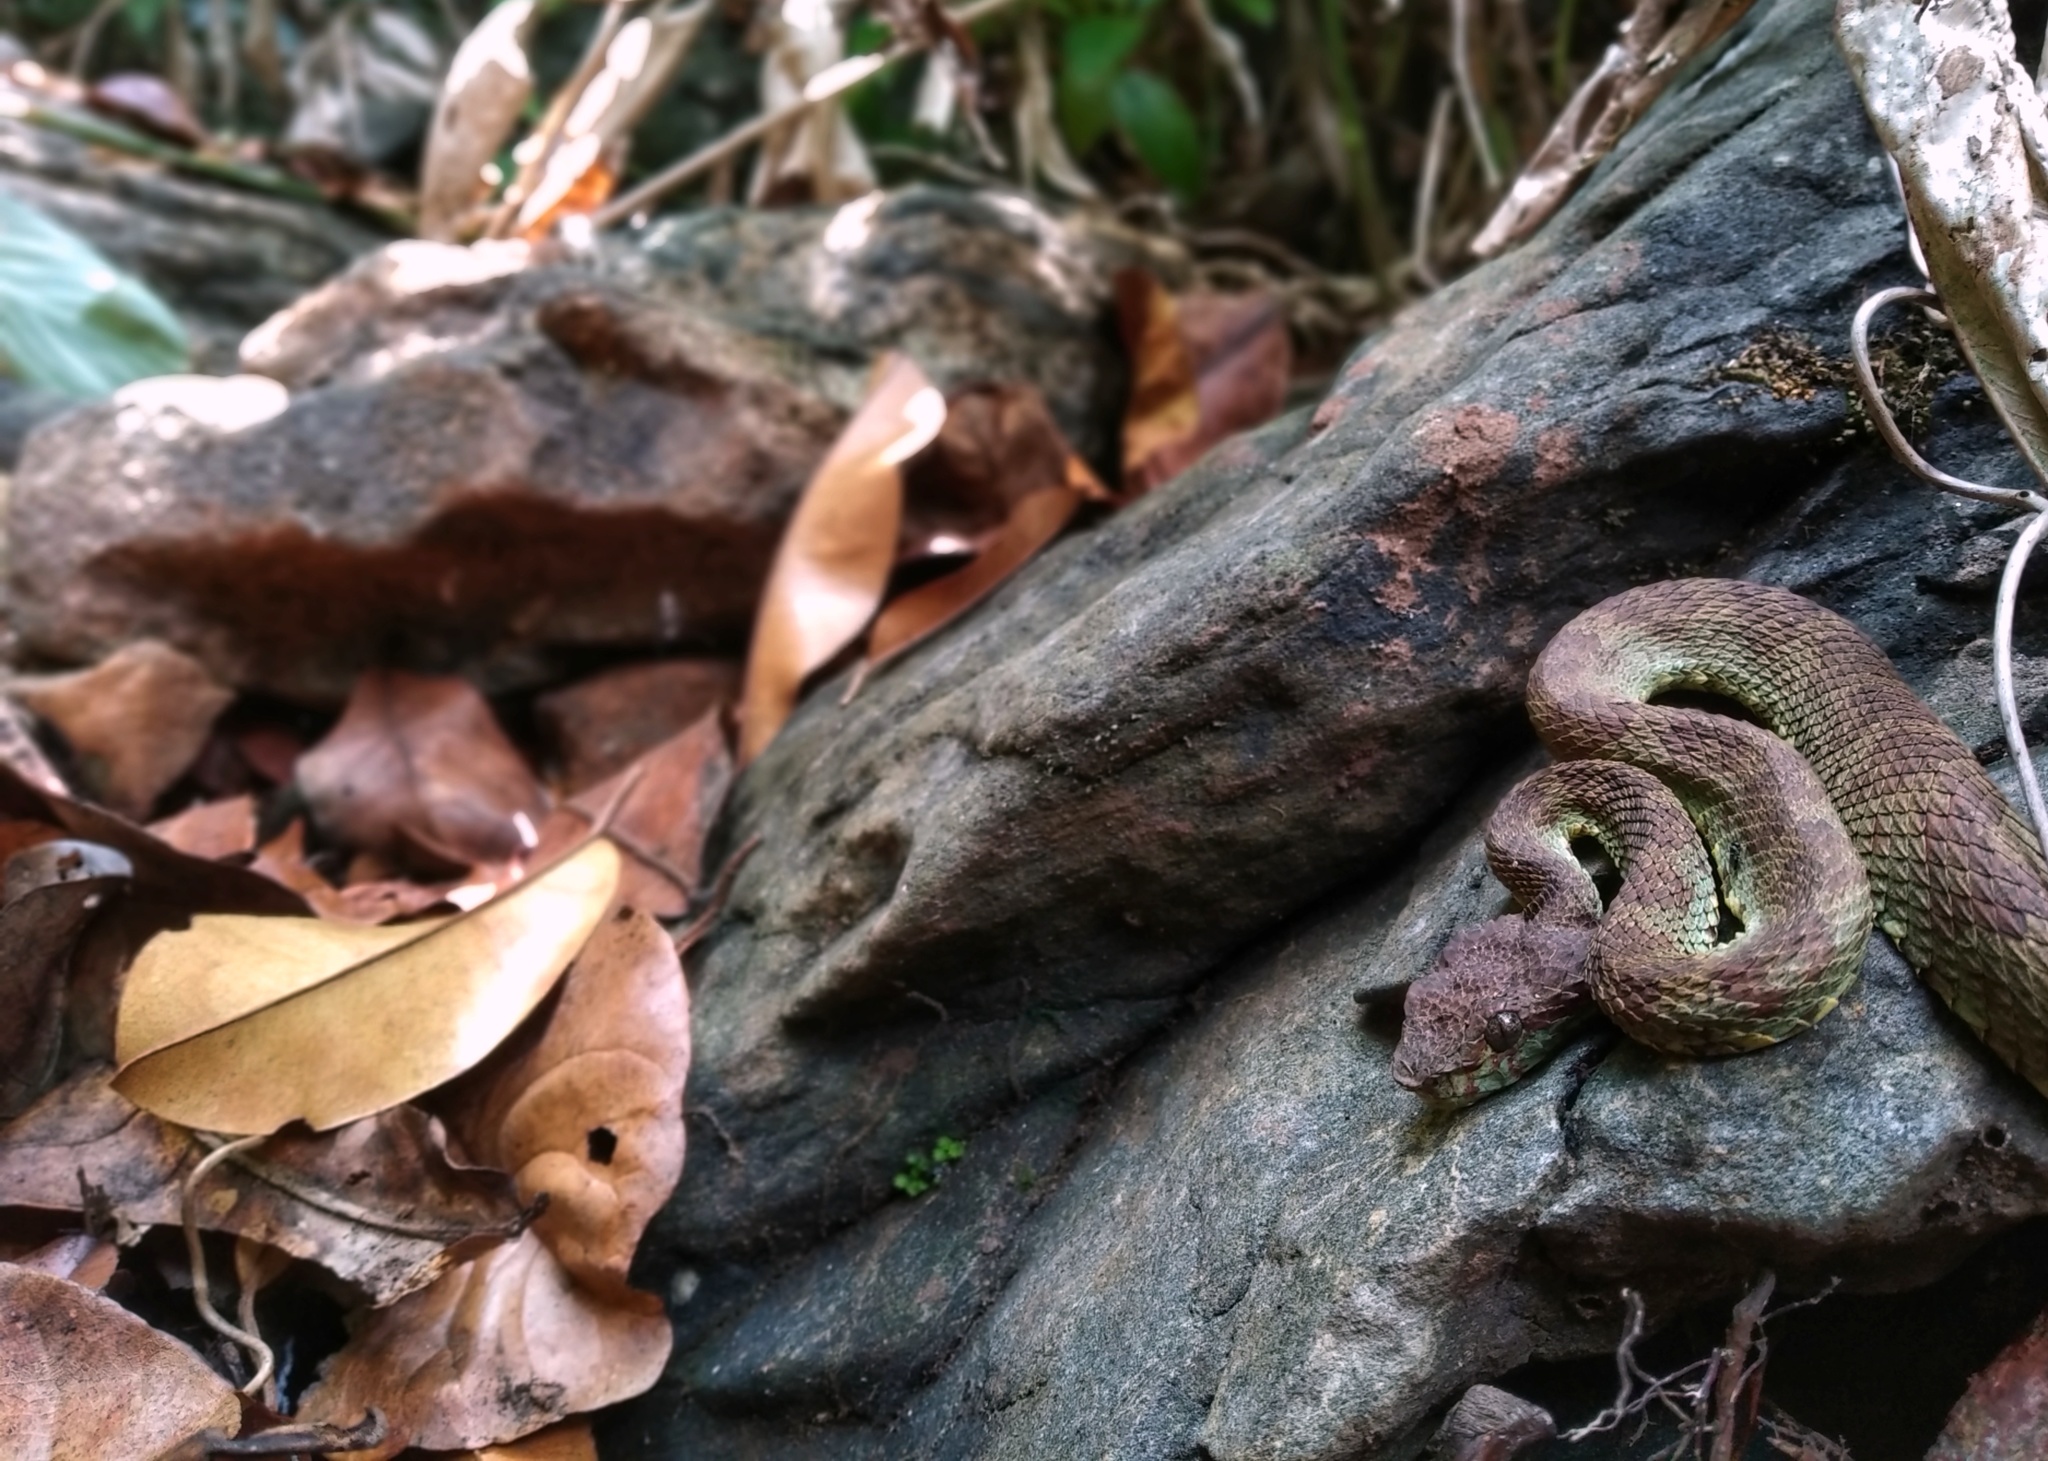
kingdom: Animalia
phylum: Chordata
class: Squamata
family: Viperidae
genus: Craspedocephalus
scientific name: Craspedocephalus malabaricus
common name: Malabarian pit viper
